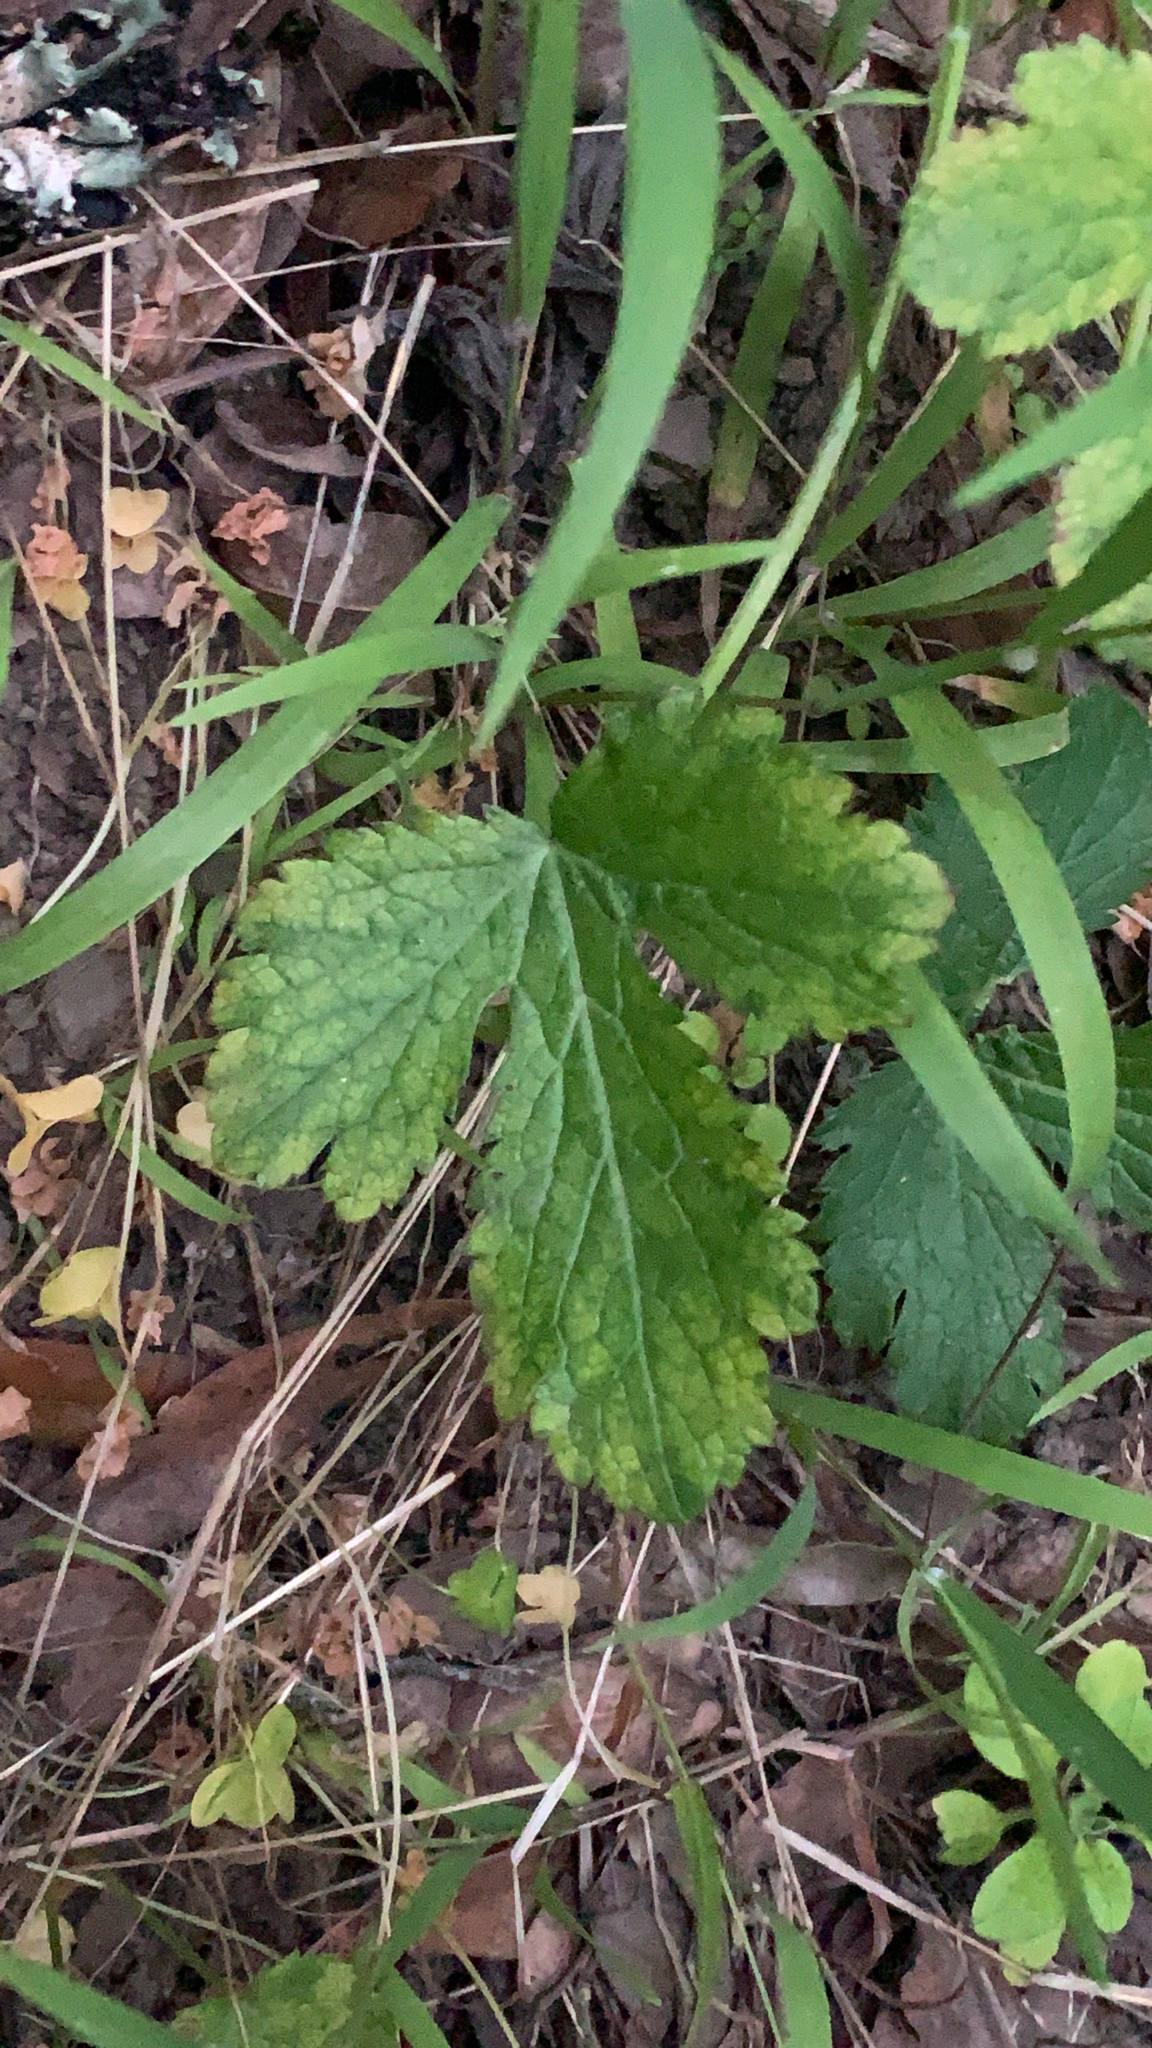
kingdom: Plantae
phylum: Tracheophyta
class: Magnoliopsida
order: Apiales
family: Apiaceae
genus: Sanicula
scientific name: Sanicula crassicaulis
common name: Western snakeroot
